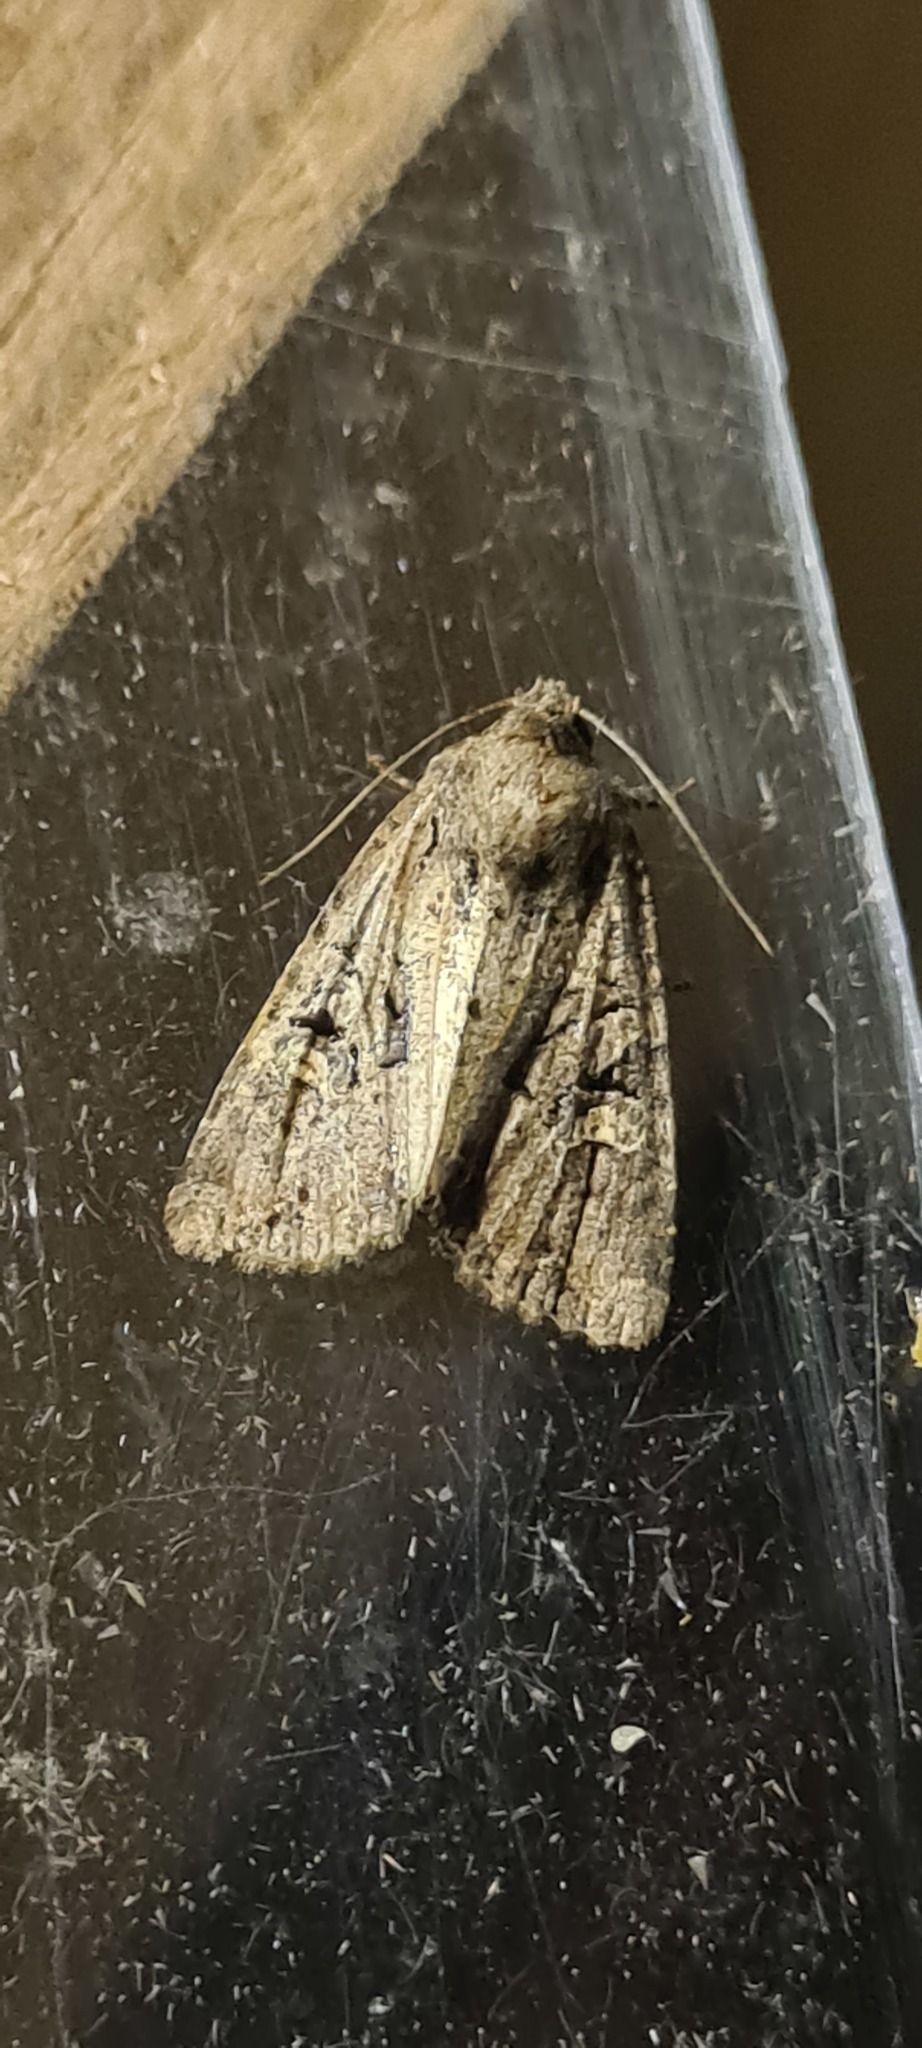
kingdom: Animalia
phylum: Arthropoda
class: Insecta
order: Lepidoptera
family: Noctuidae
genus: Apterogenum
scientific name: Apterogenum ypsillon
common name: Dingy shears
